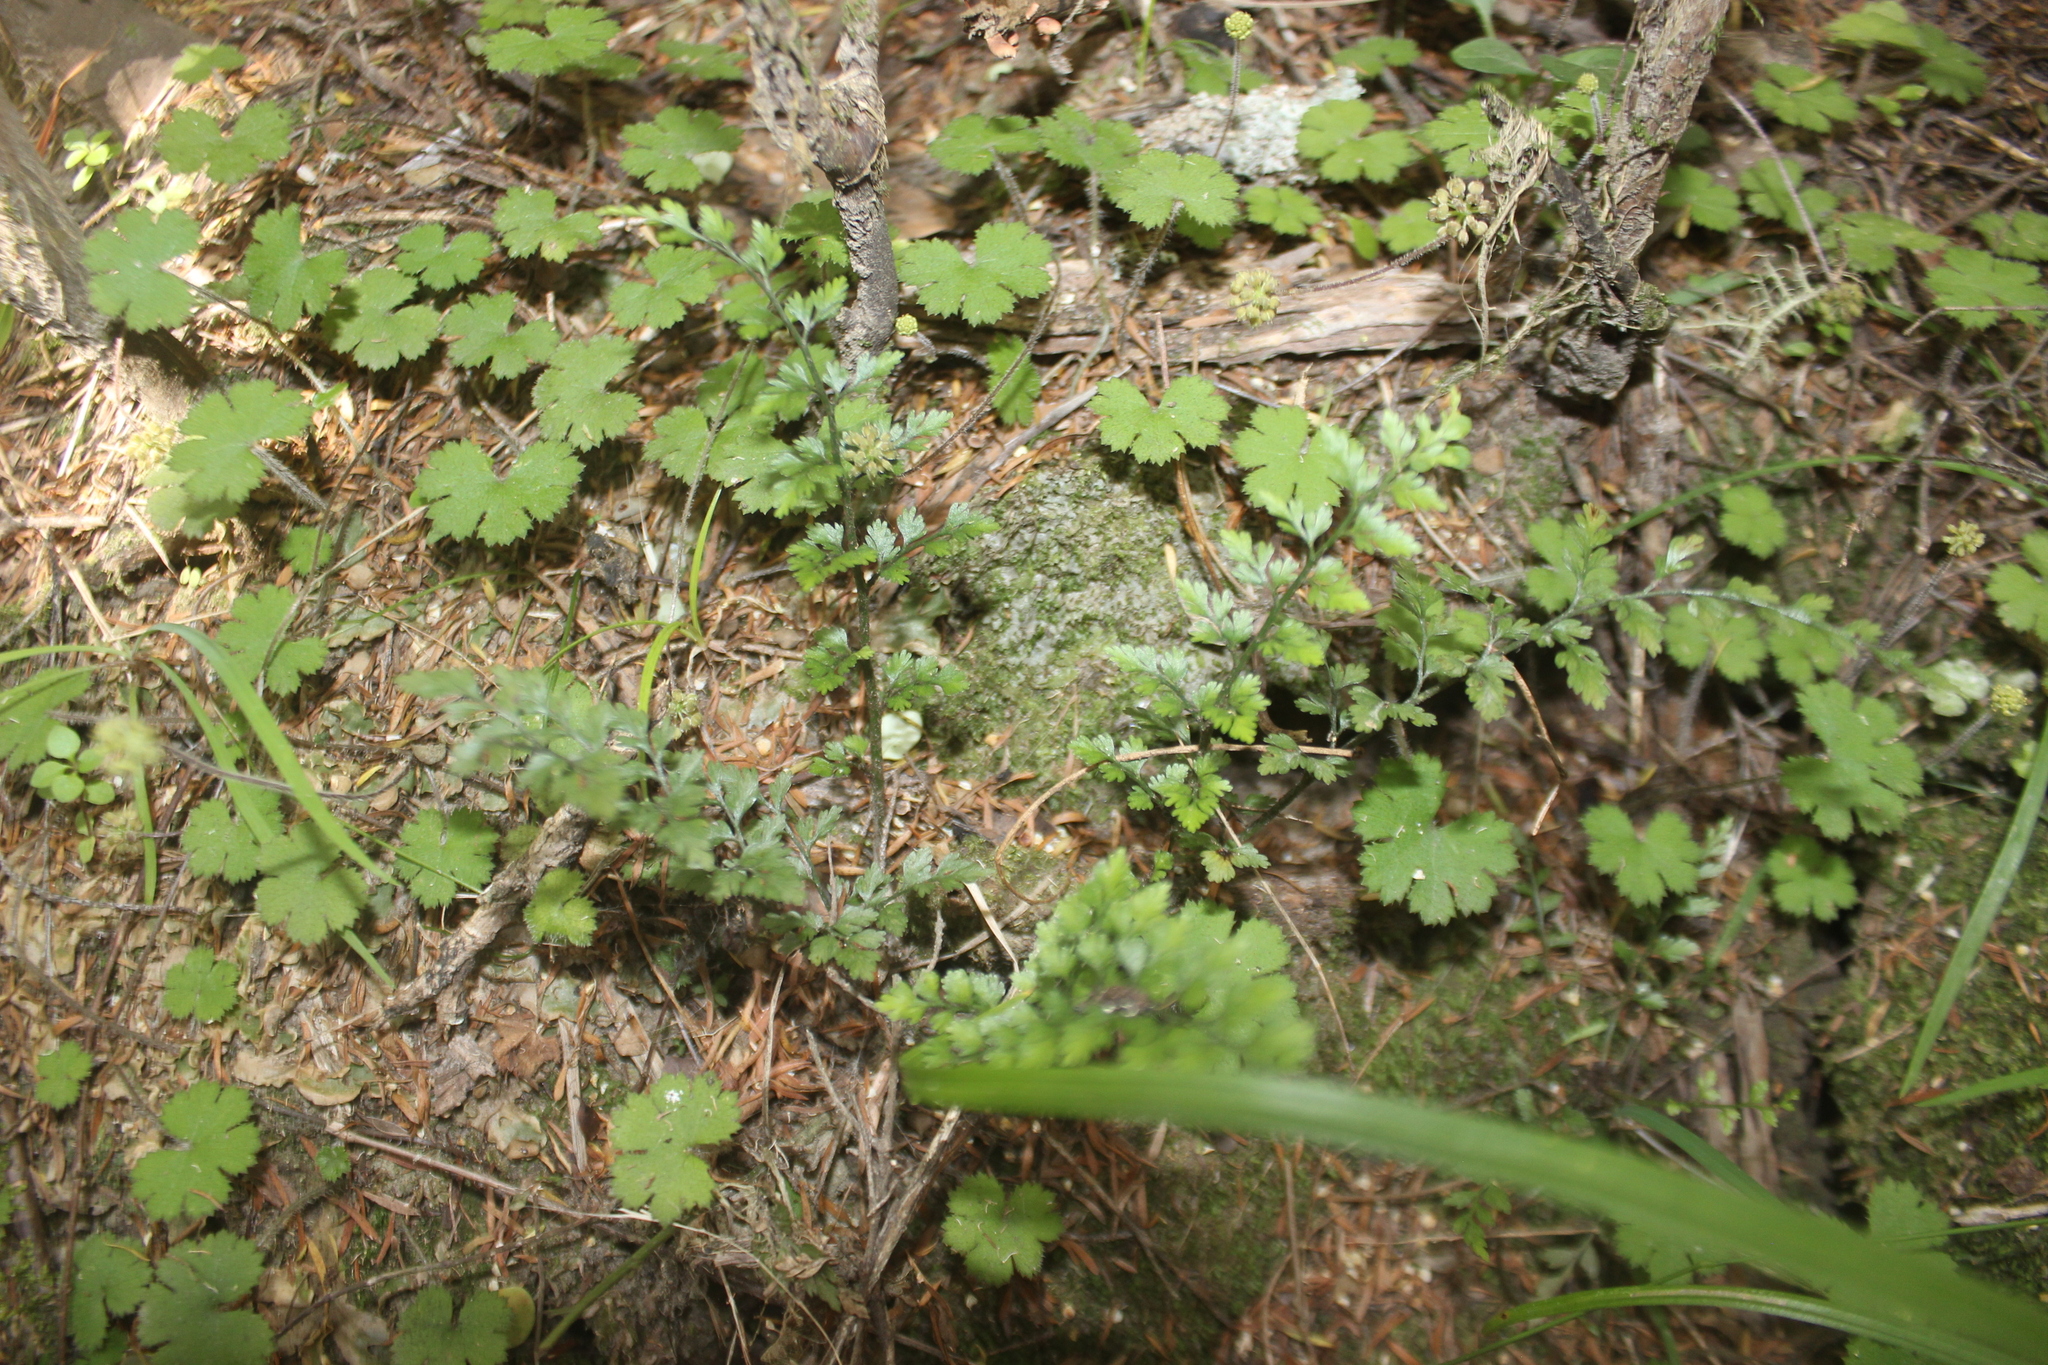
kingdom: Plantae
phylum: Tracheophyta
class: Polypodiopsida
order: Polypodiales
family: Aspleniaceae
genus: Asplenium
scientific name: Asplenium hookerianum
